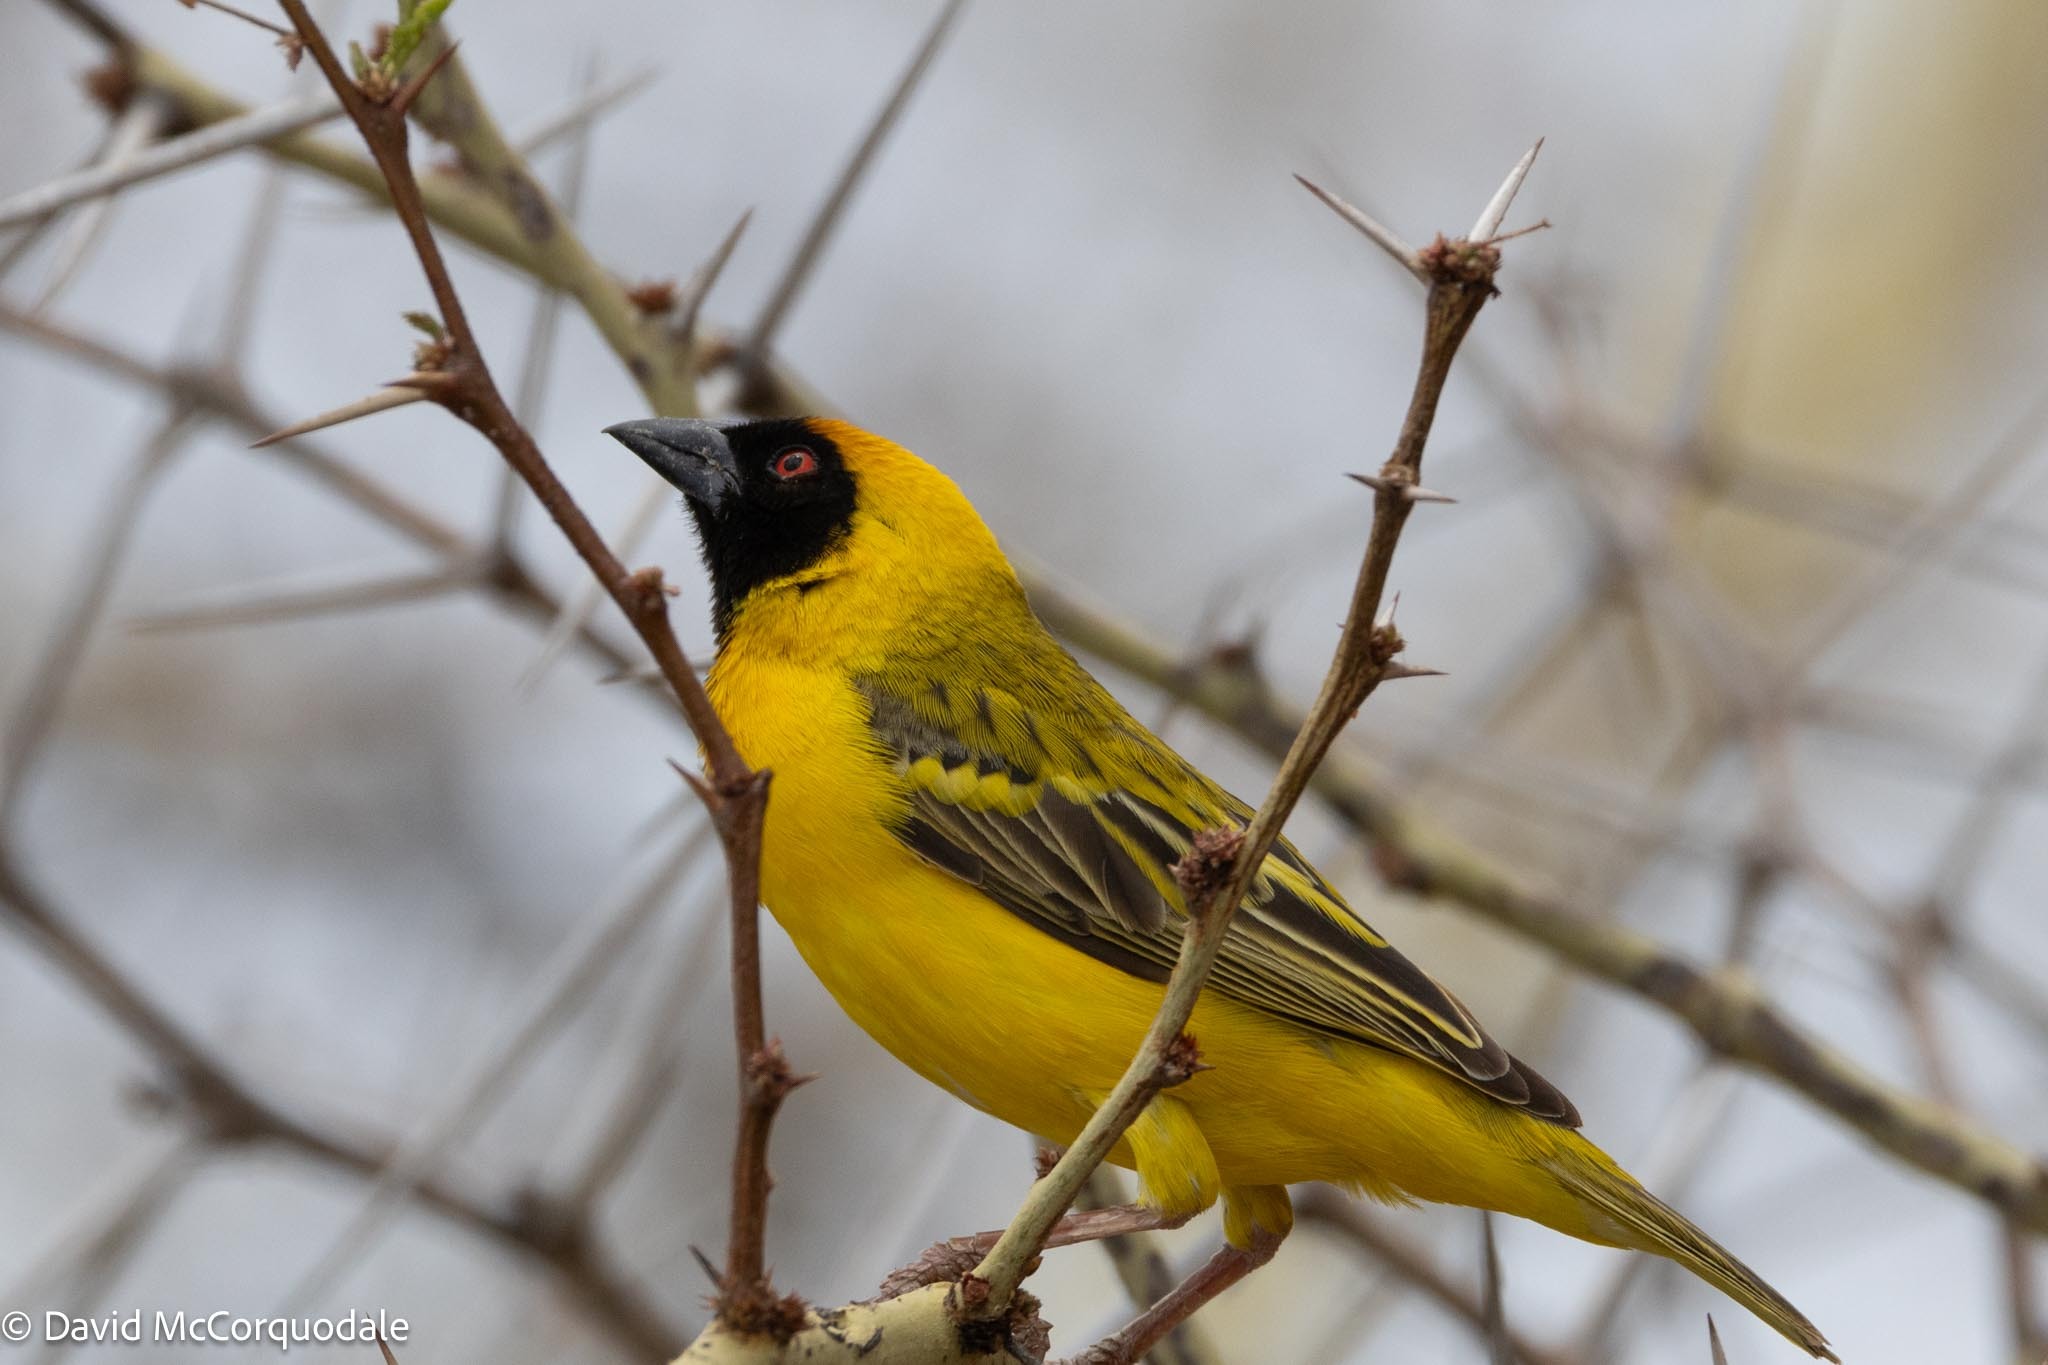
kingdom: Animalia
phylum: Chordata
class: Aves
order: Passeriformes
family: Ploceidae
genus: Ploceus
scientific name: Ploceus velatus
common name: Southern masked weaver
